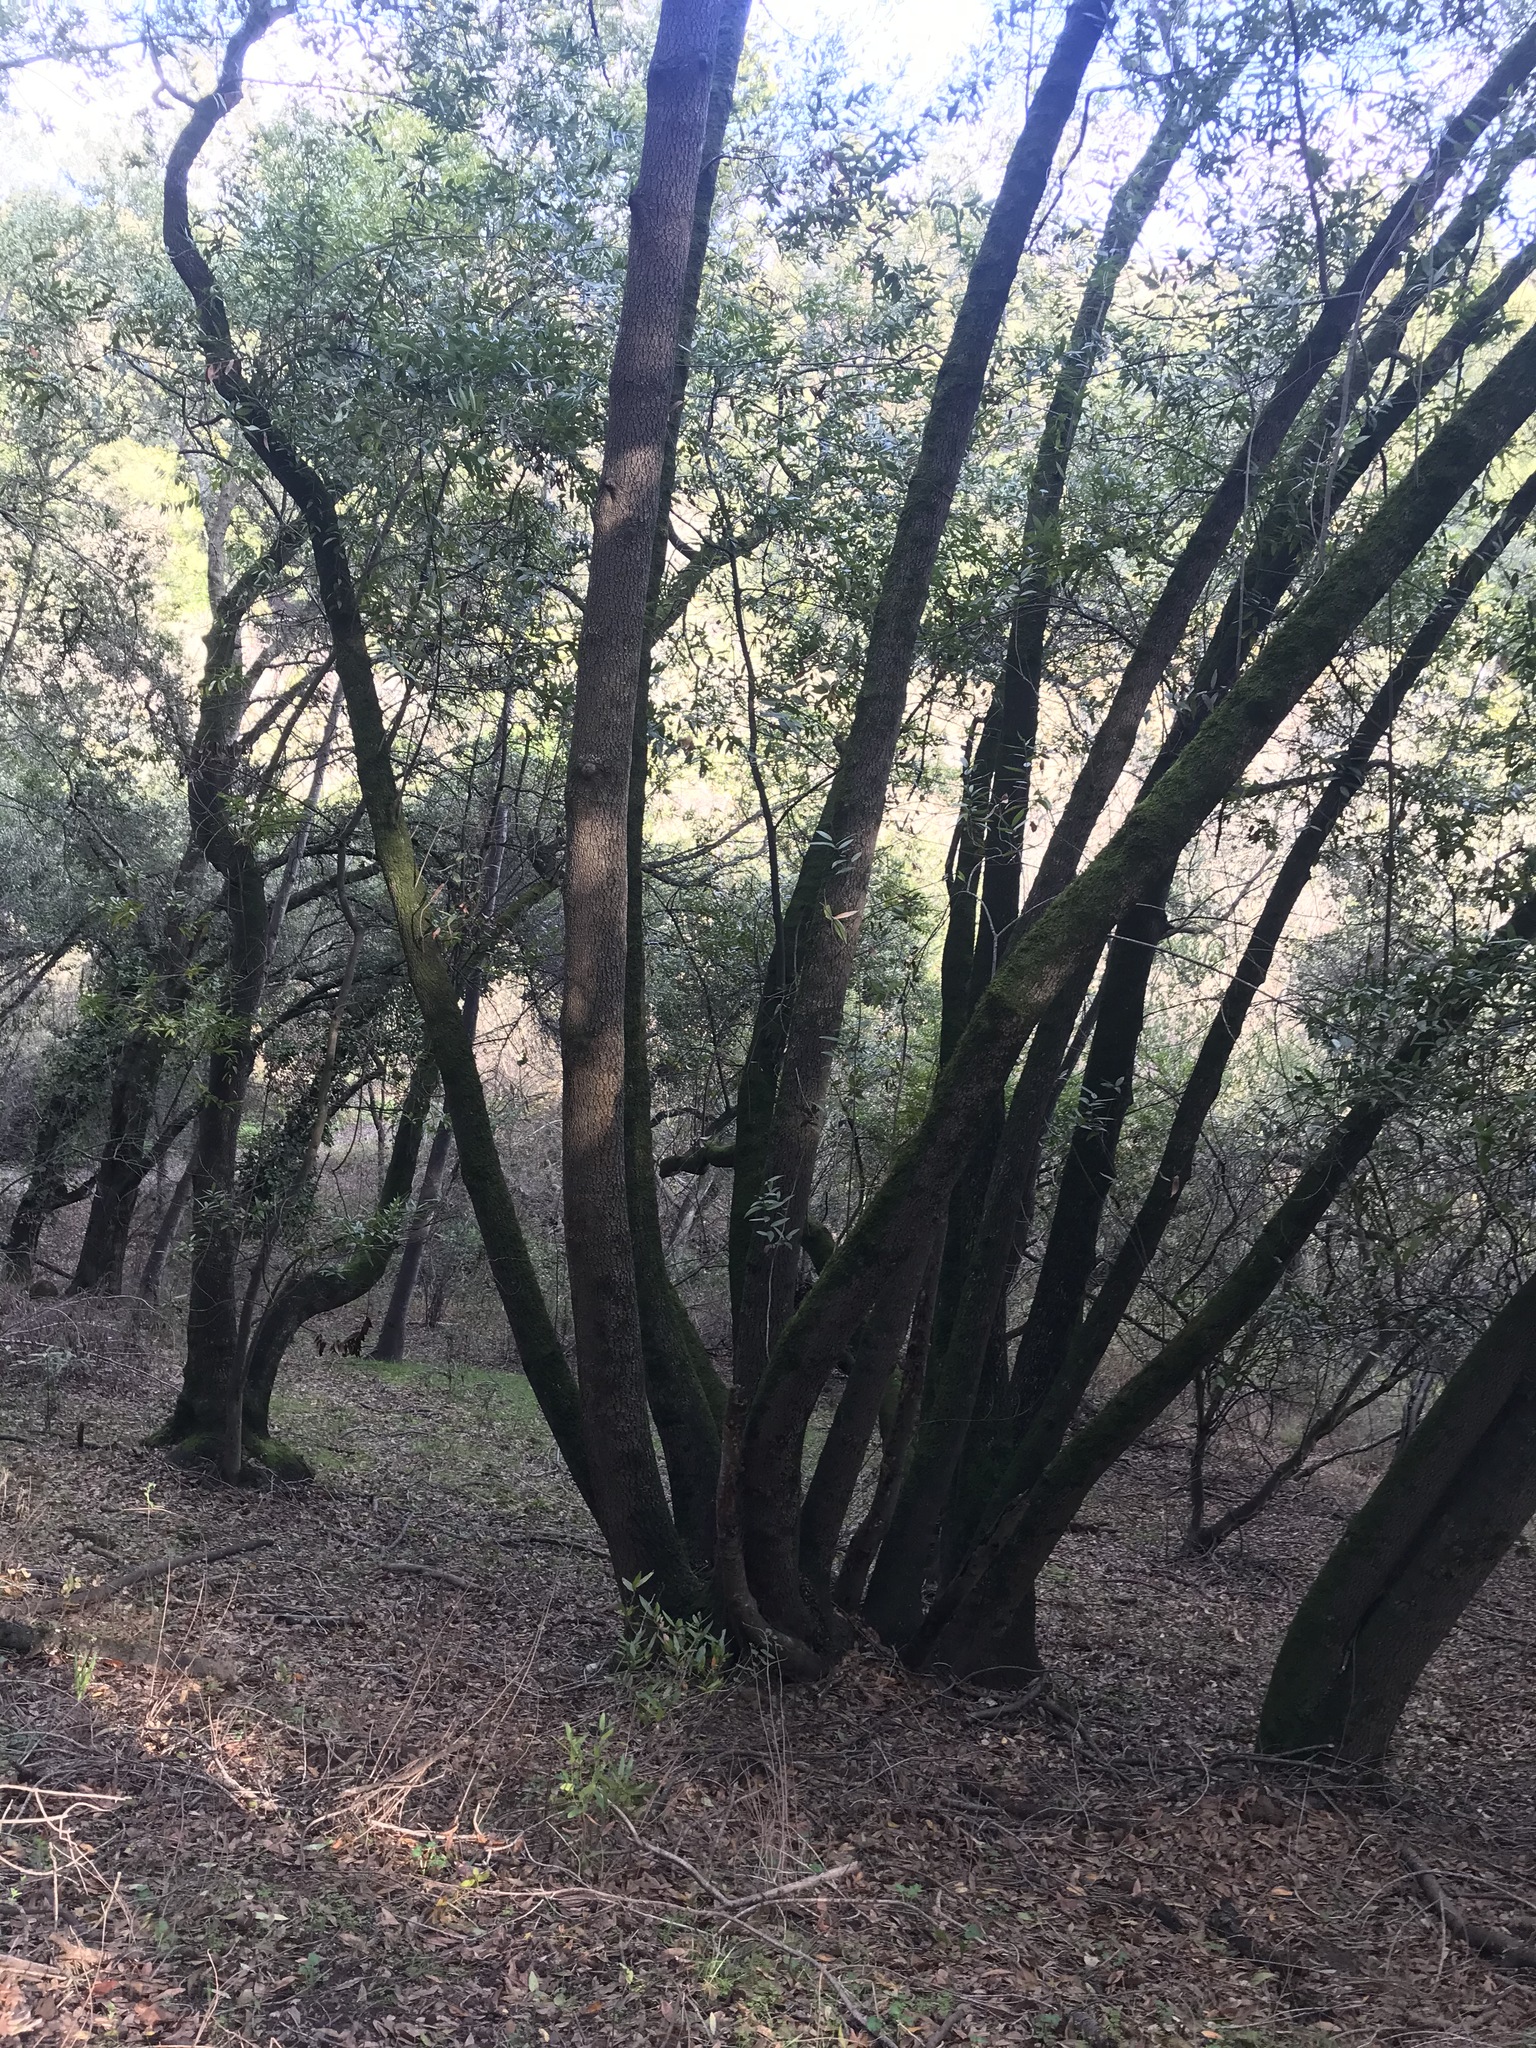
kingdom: Plantae
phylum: Tracheophyta
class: Magnoliopsida
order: Laurales
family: Lauraceae
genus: Umbellularia
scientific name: Umbellularia californica
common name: California bay
